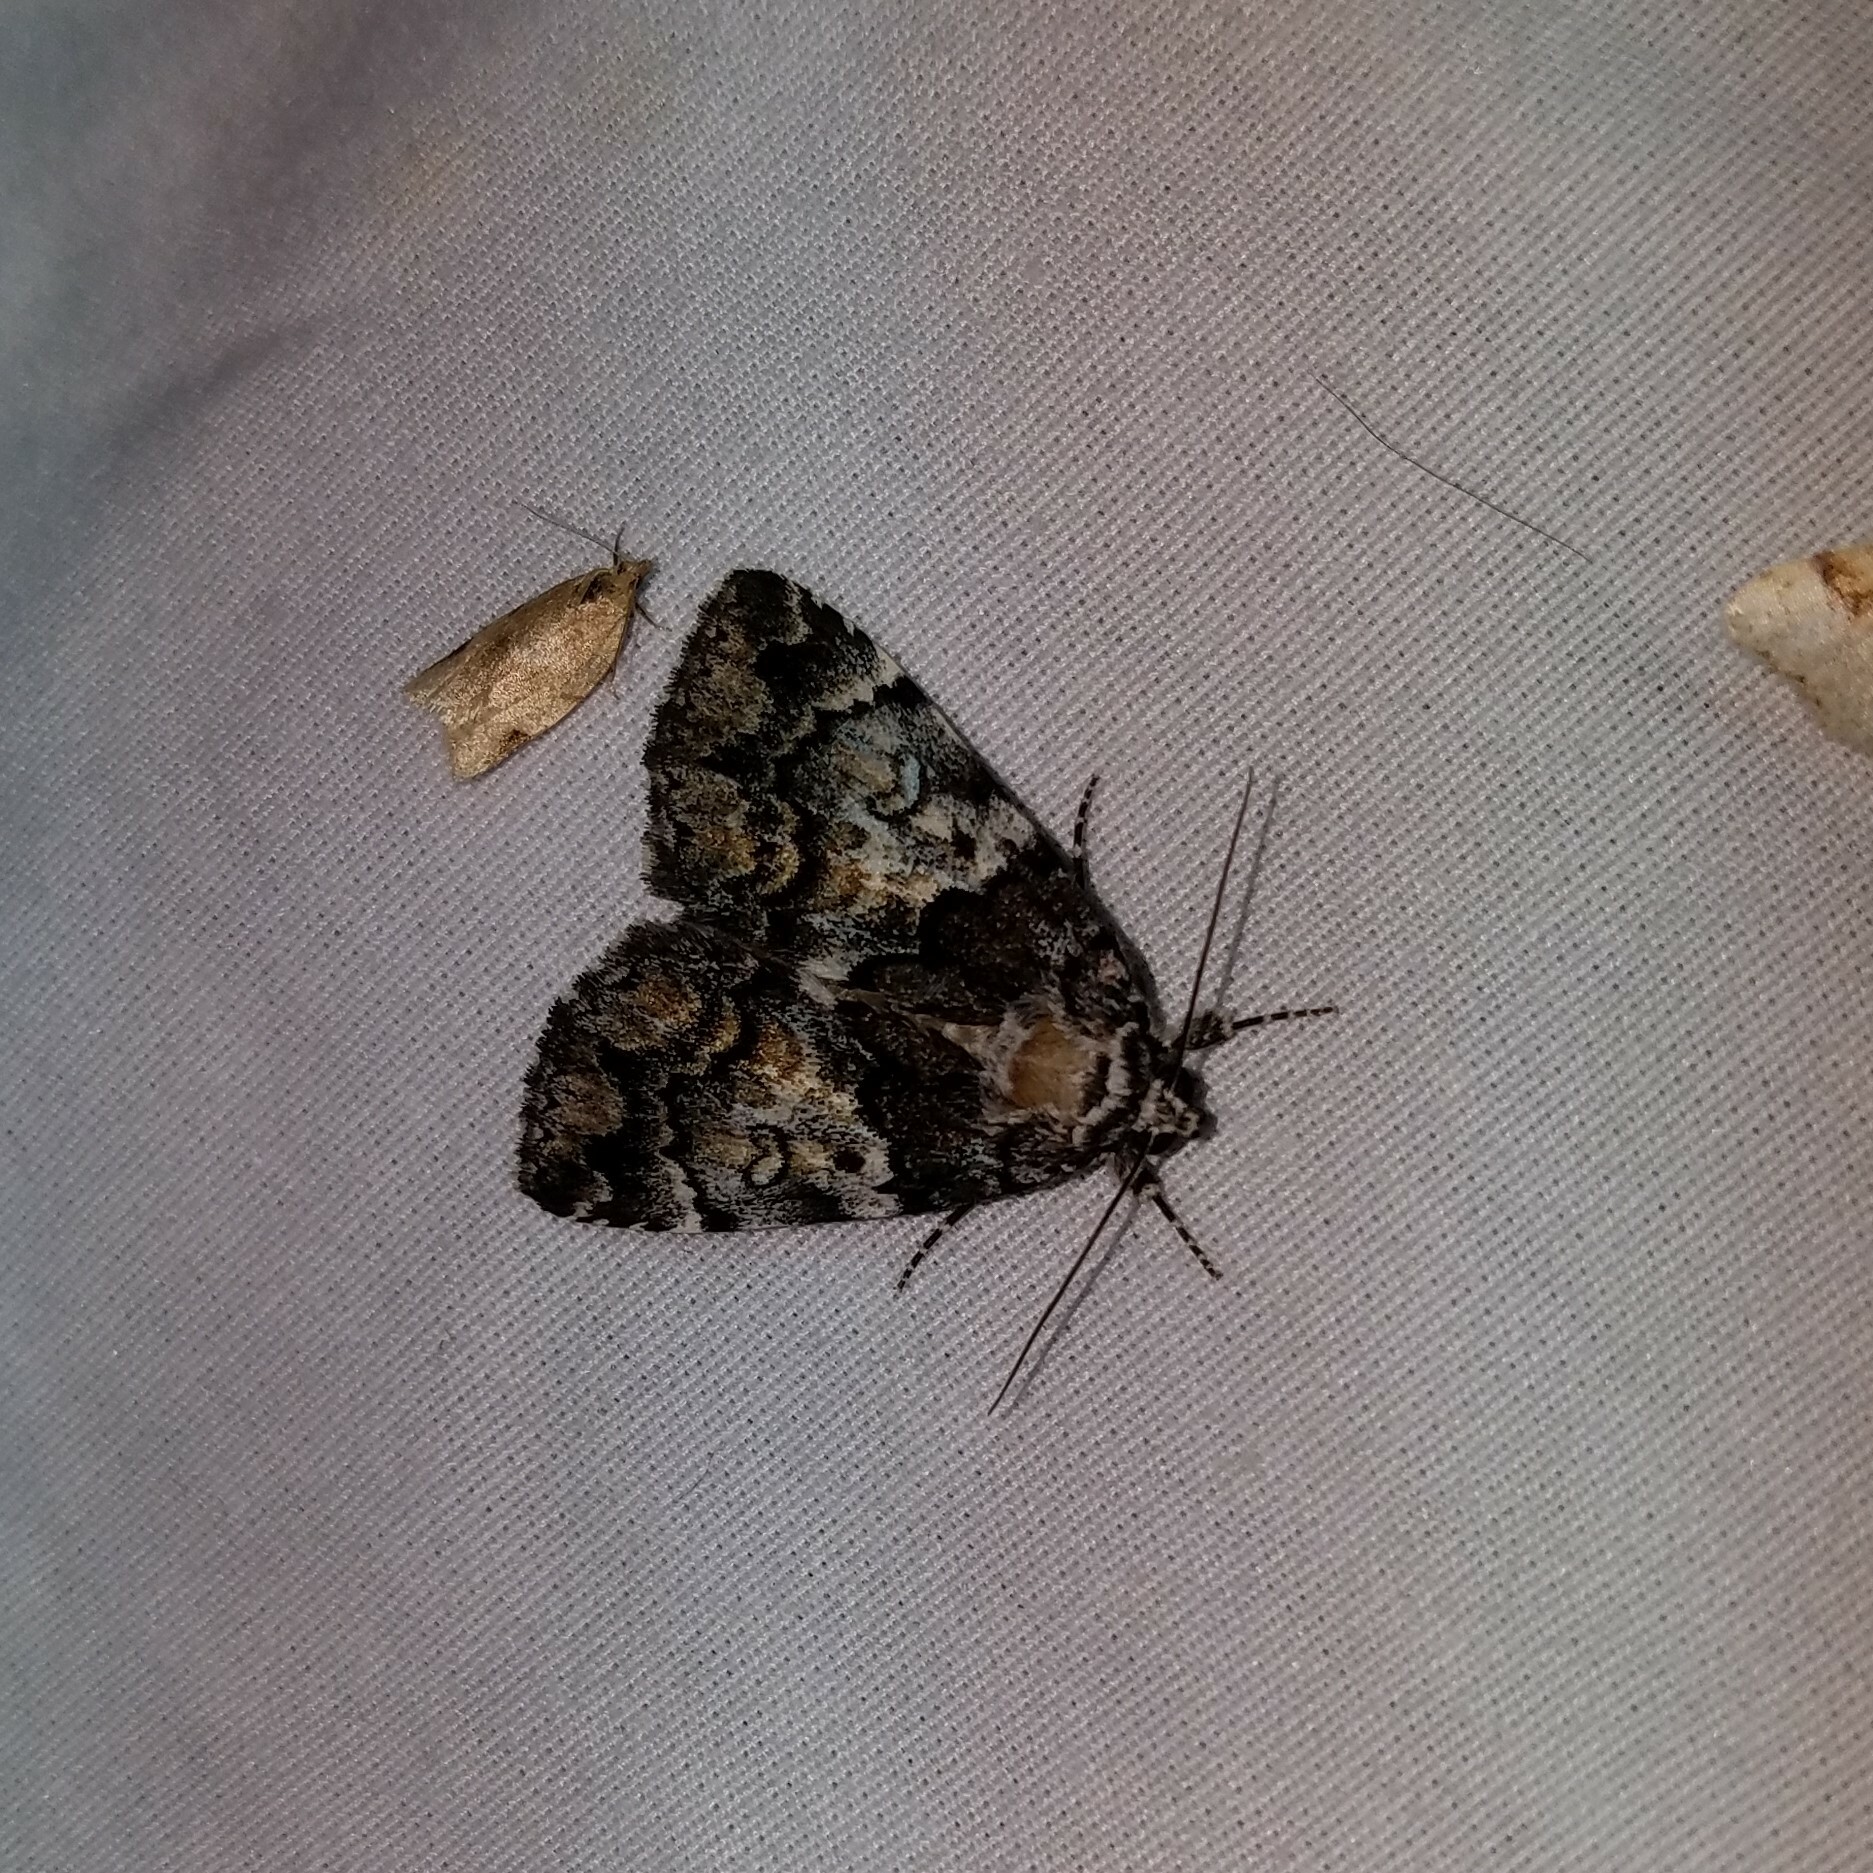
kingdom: Animalia
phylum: Arthropoda
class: Insecta
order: Lepidoptera
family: Erebidae
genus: Allotria
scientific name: Allotria elonympha
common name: False underwing
